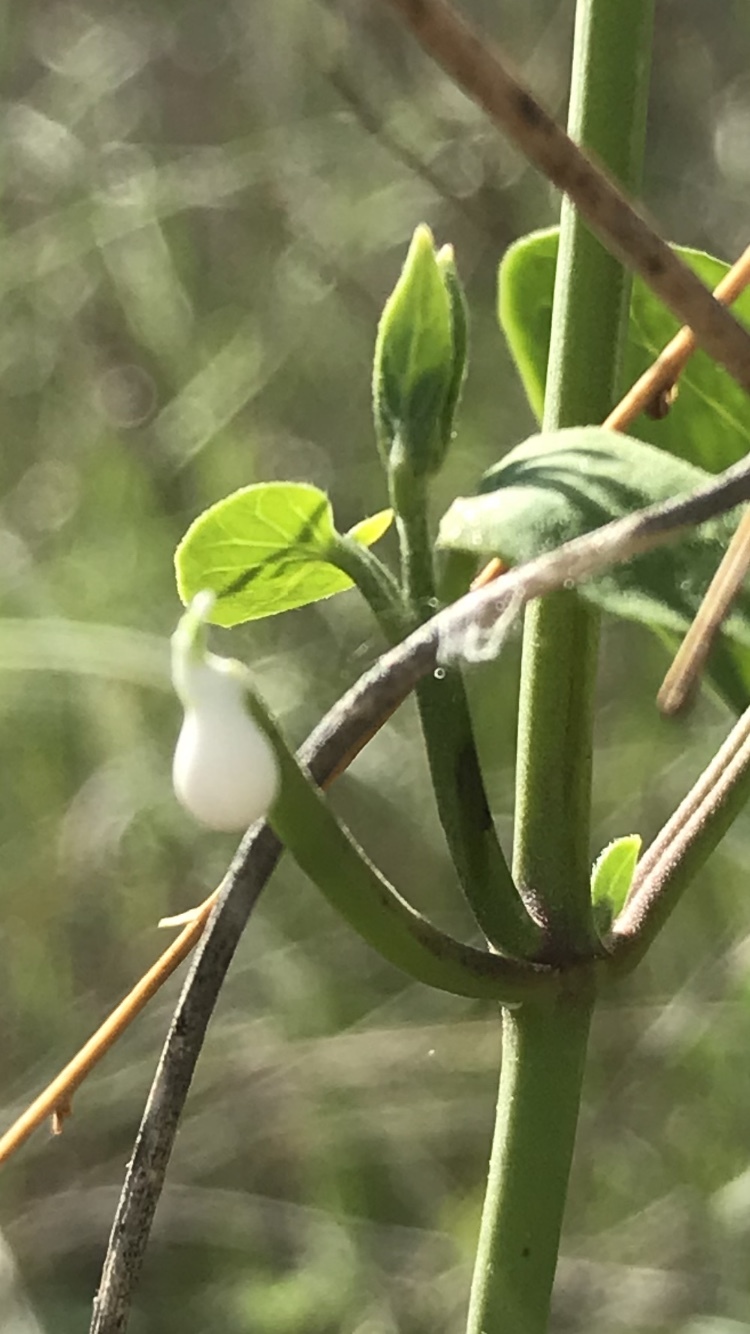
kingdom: Plantae
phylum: Tracheophyta
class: Magnoliopsida
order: Gentianales
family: Apocynaceae
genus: Funastrum
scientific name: Funastrum cynanchoides
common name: Climbing-milkweed
